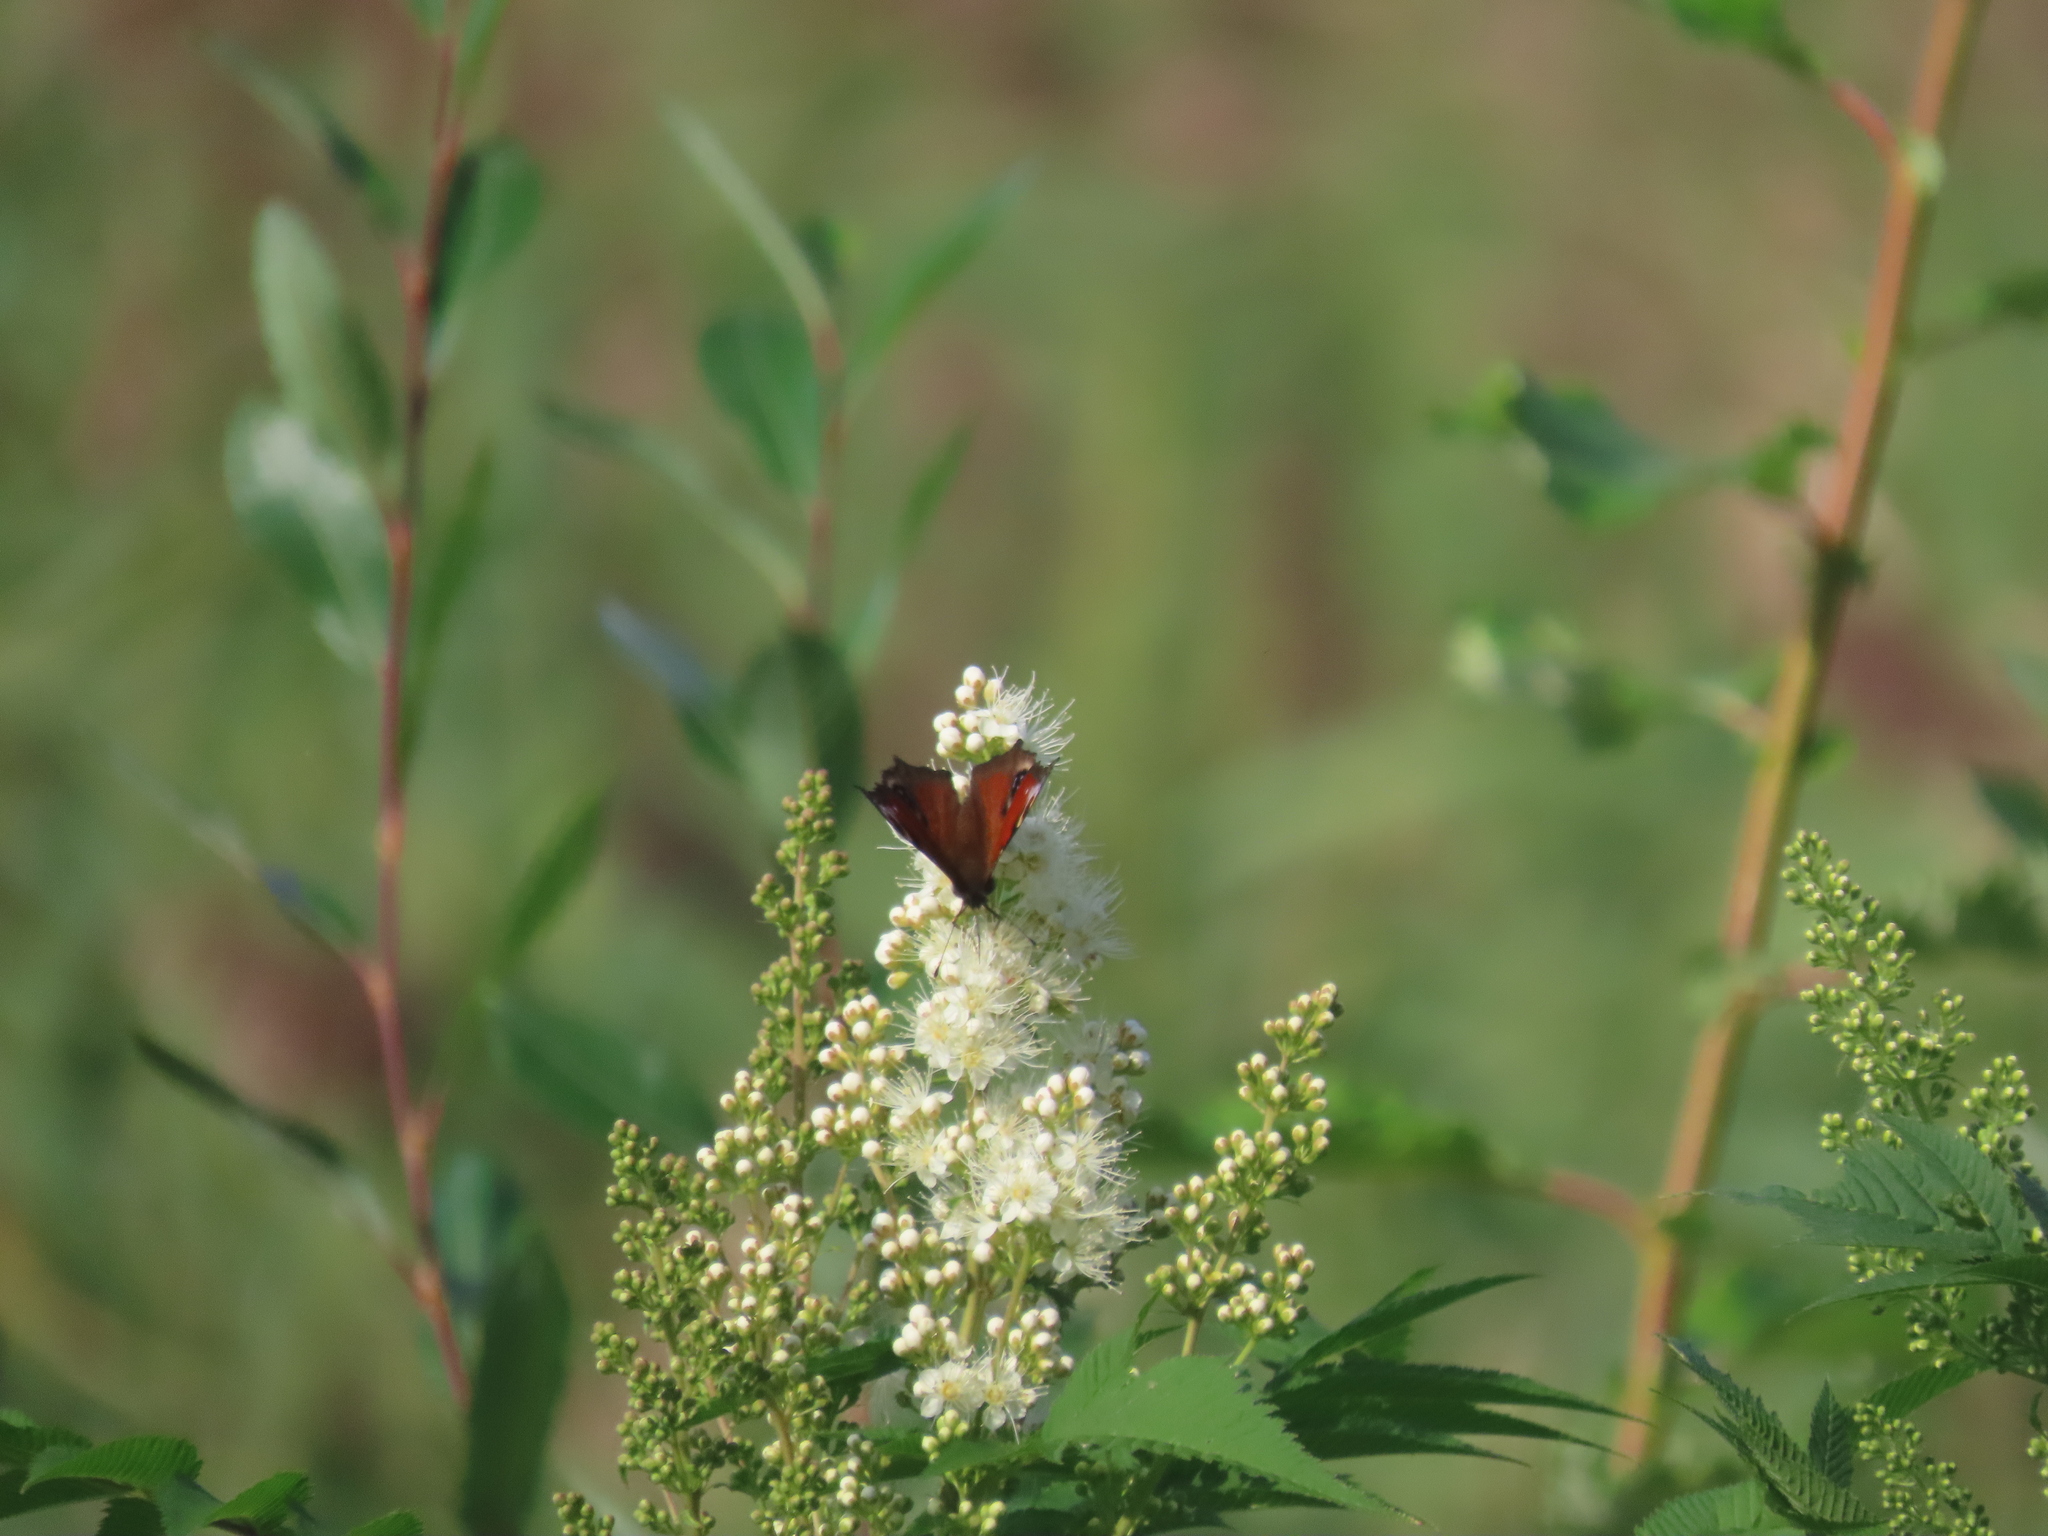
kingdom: Animalia
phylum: Arthropoda
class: Insecta
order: Lepidoptera
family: Nymphalidae
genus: Aglais
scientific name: Aglais io
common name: Peacock
